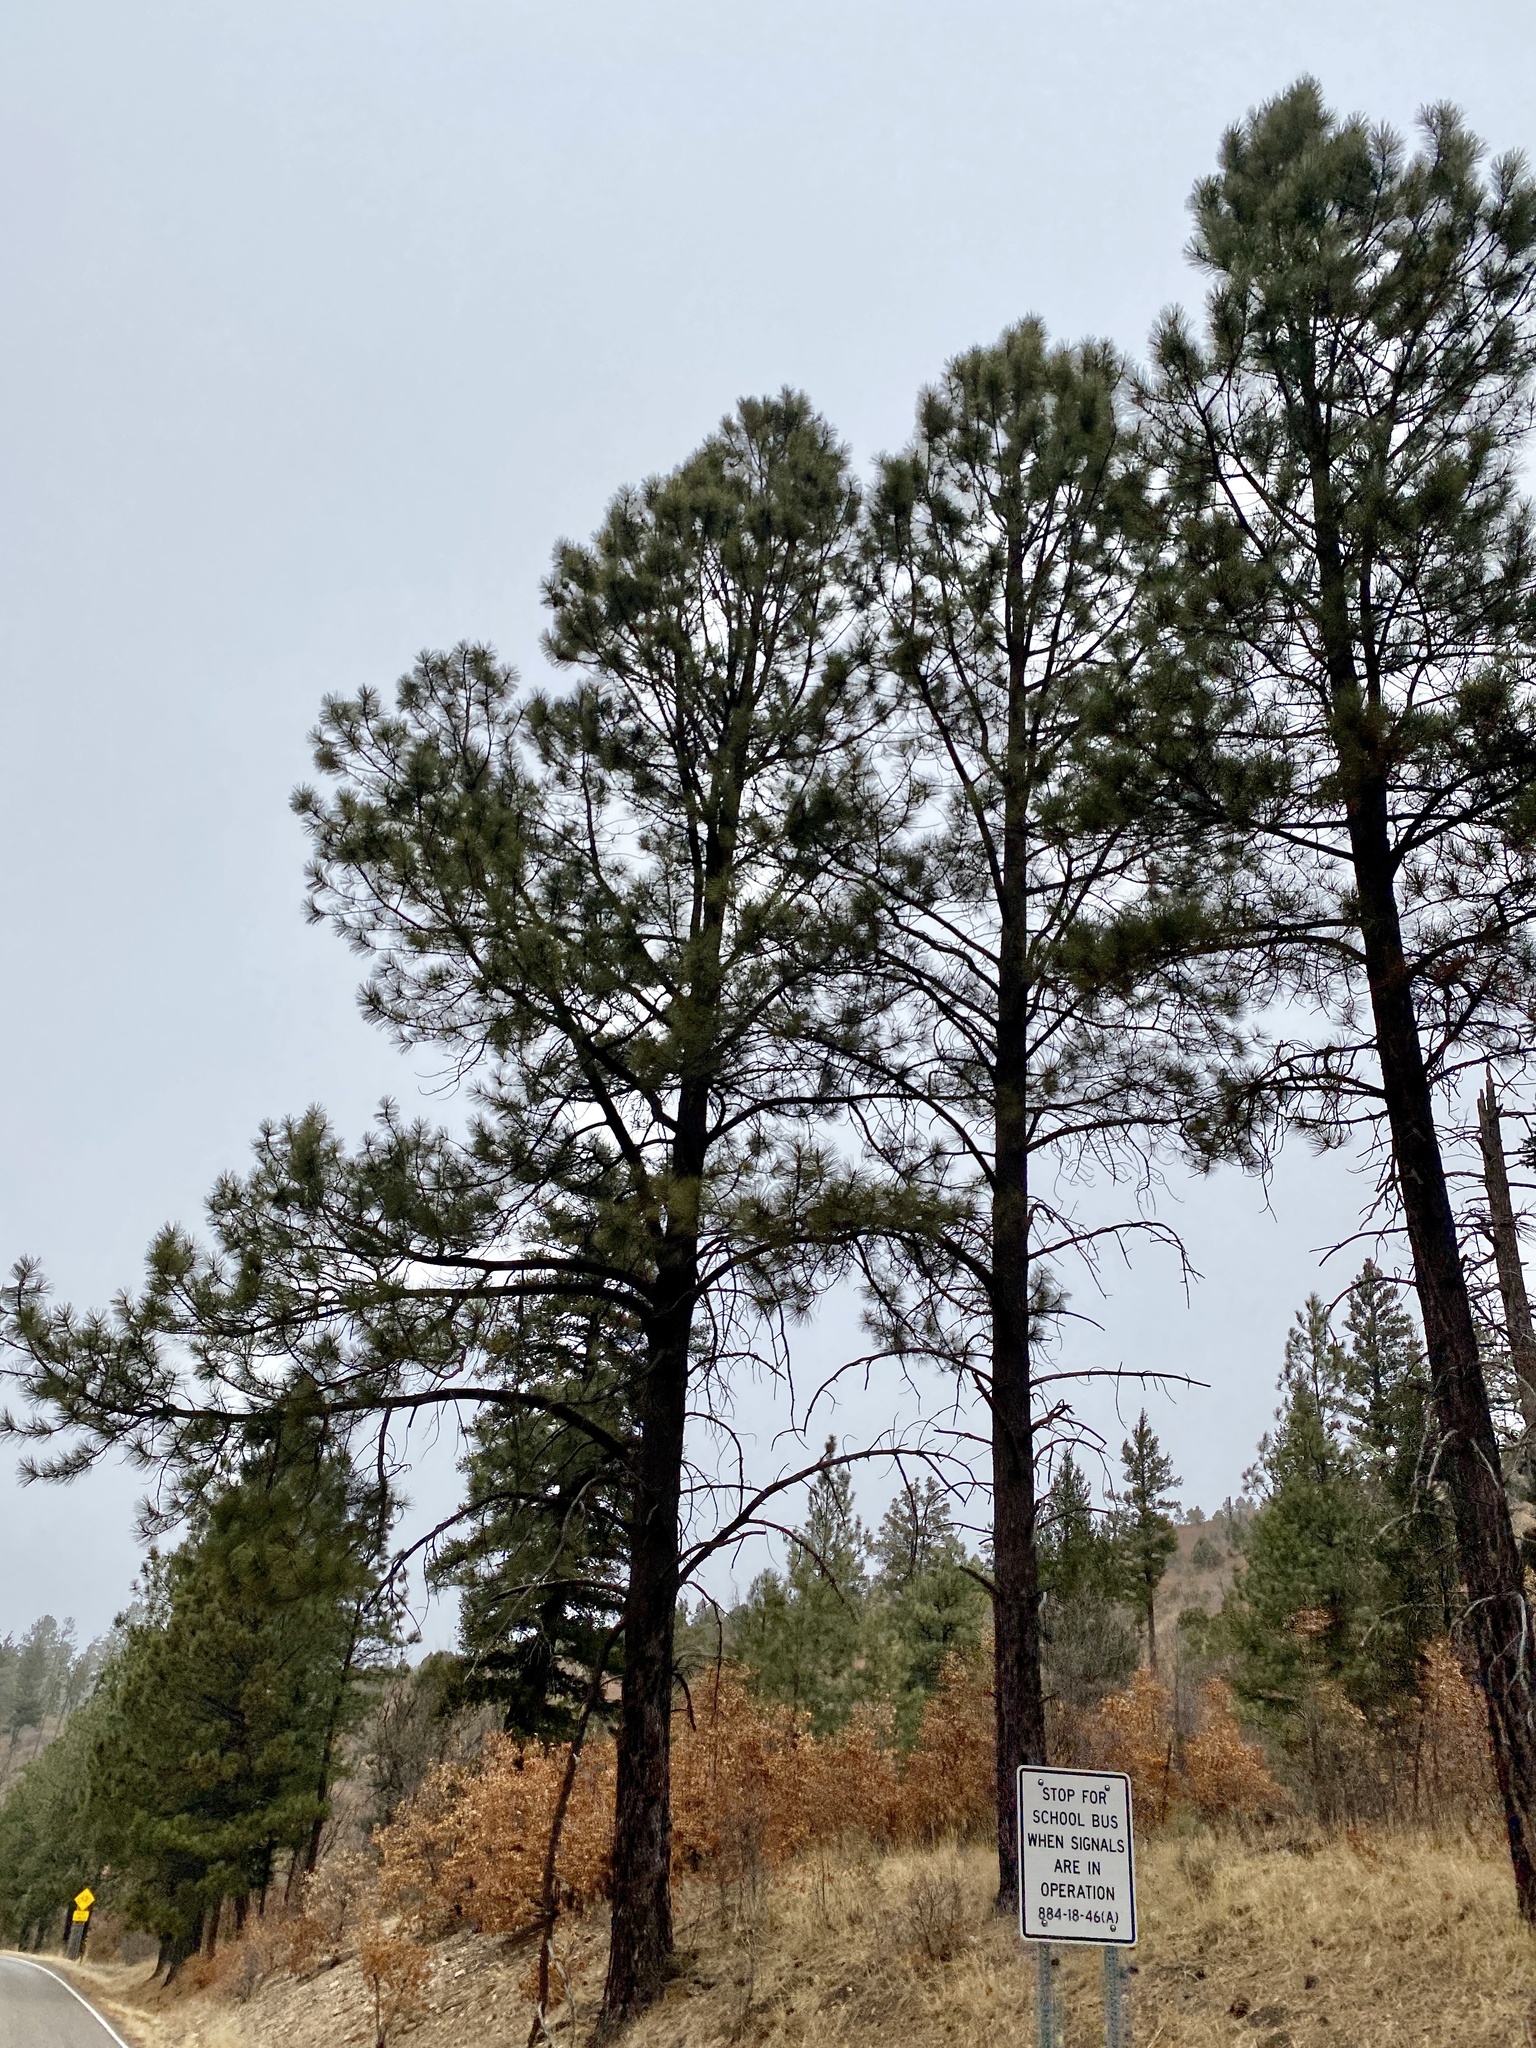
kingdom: Plantae
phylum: Tracheophyta
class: Pinopsida
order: Pinales
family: Pinaceae
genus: Pinus
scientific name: Pinus ponderosa
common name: Western yellow-pine
